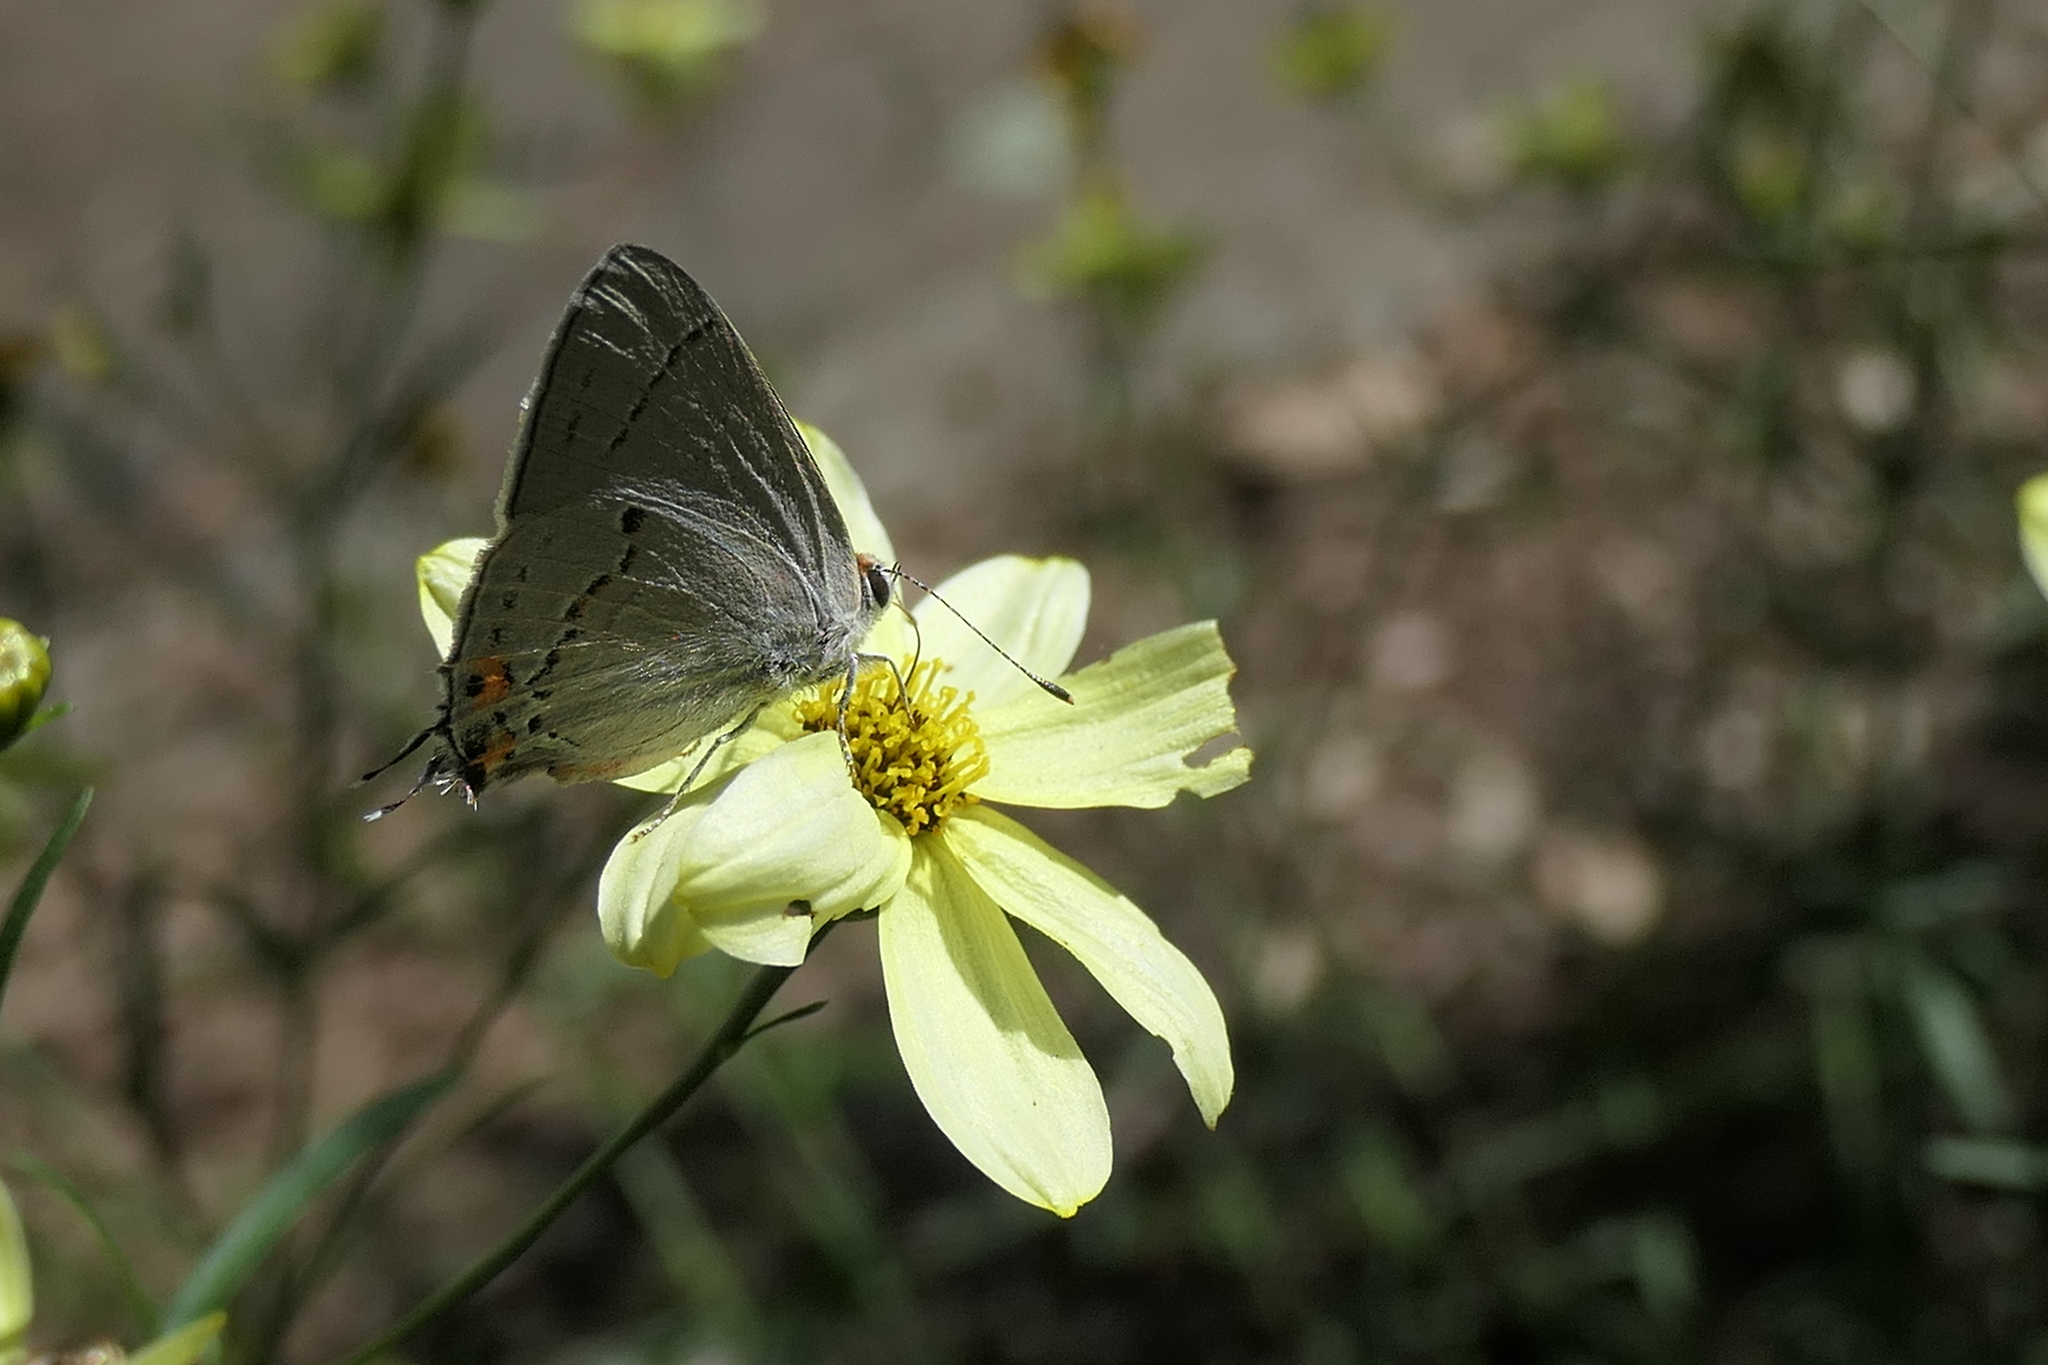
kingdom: Animalia
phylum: Arthropoda
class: Insecta
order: Lepidoptera
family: Lycaenidae
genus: Strymon
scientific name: Strymon melinus
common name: Gray hairstreak
